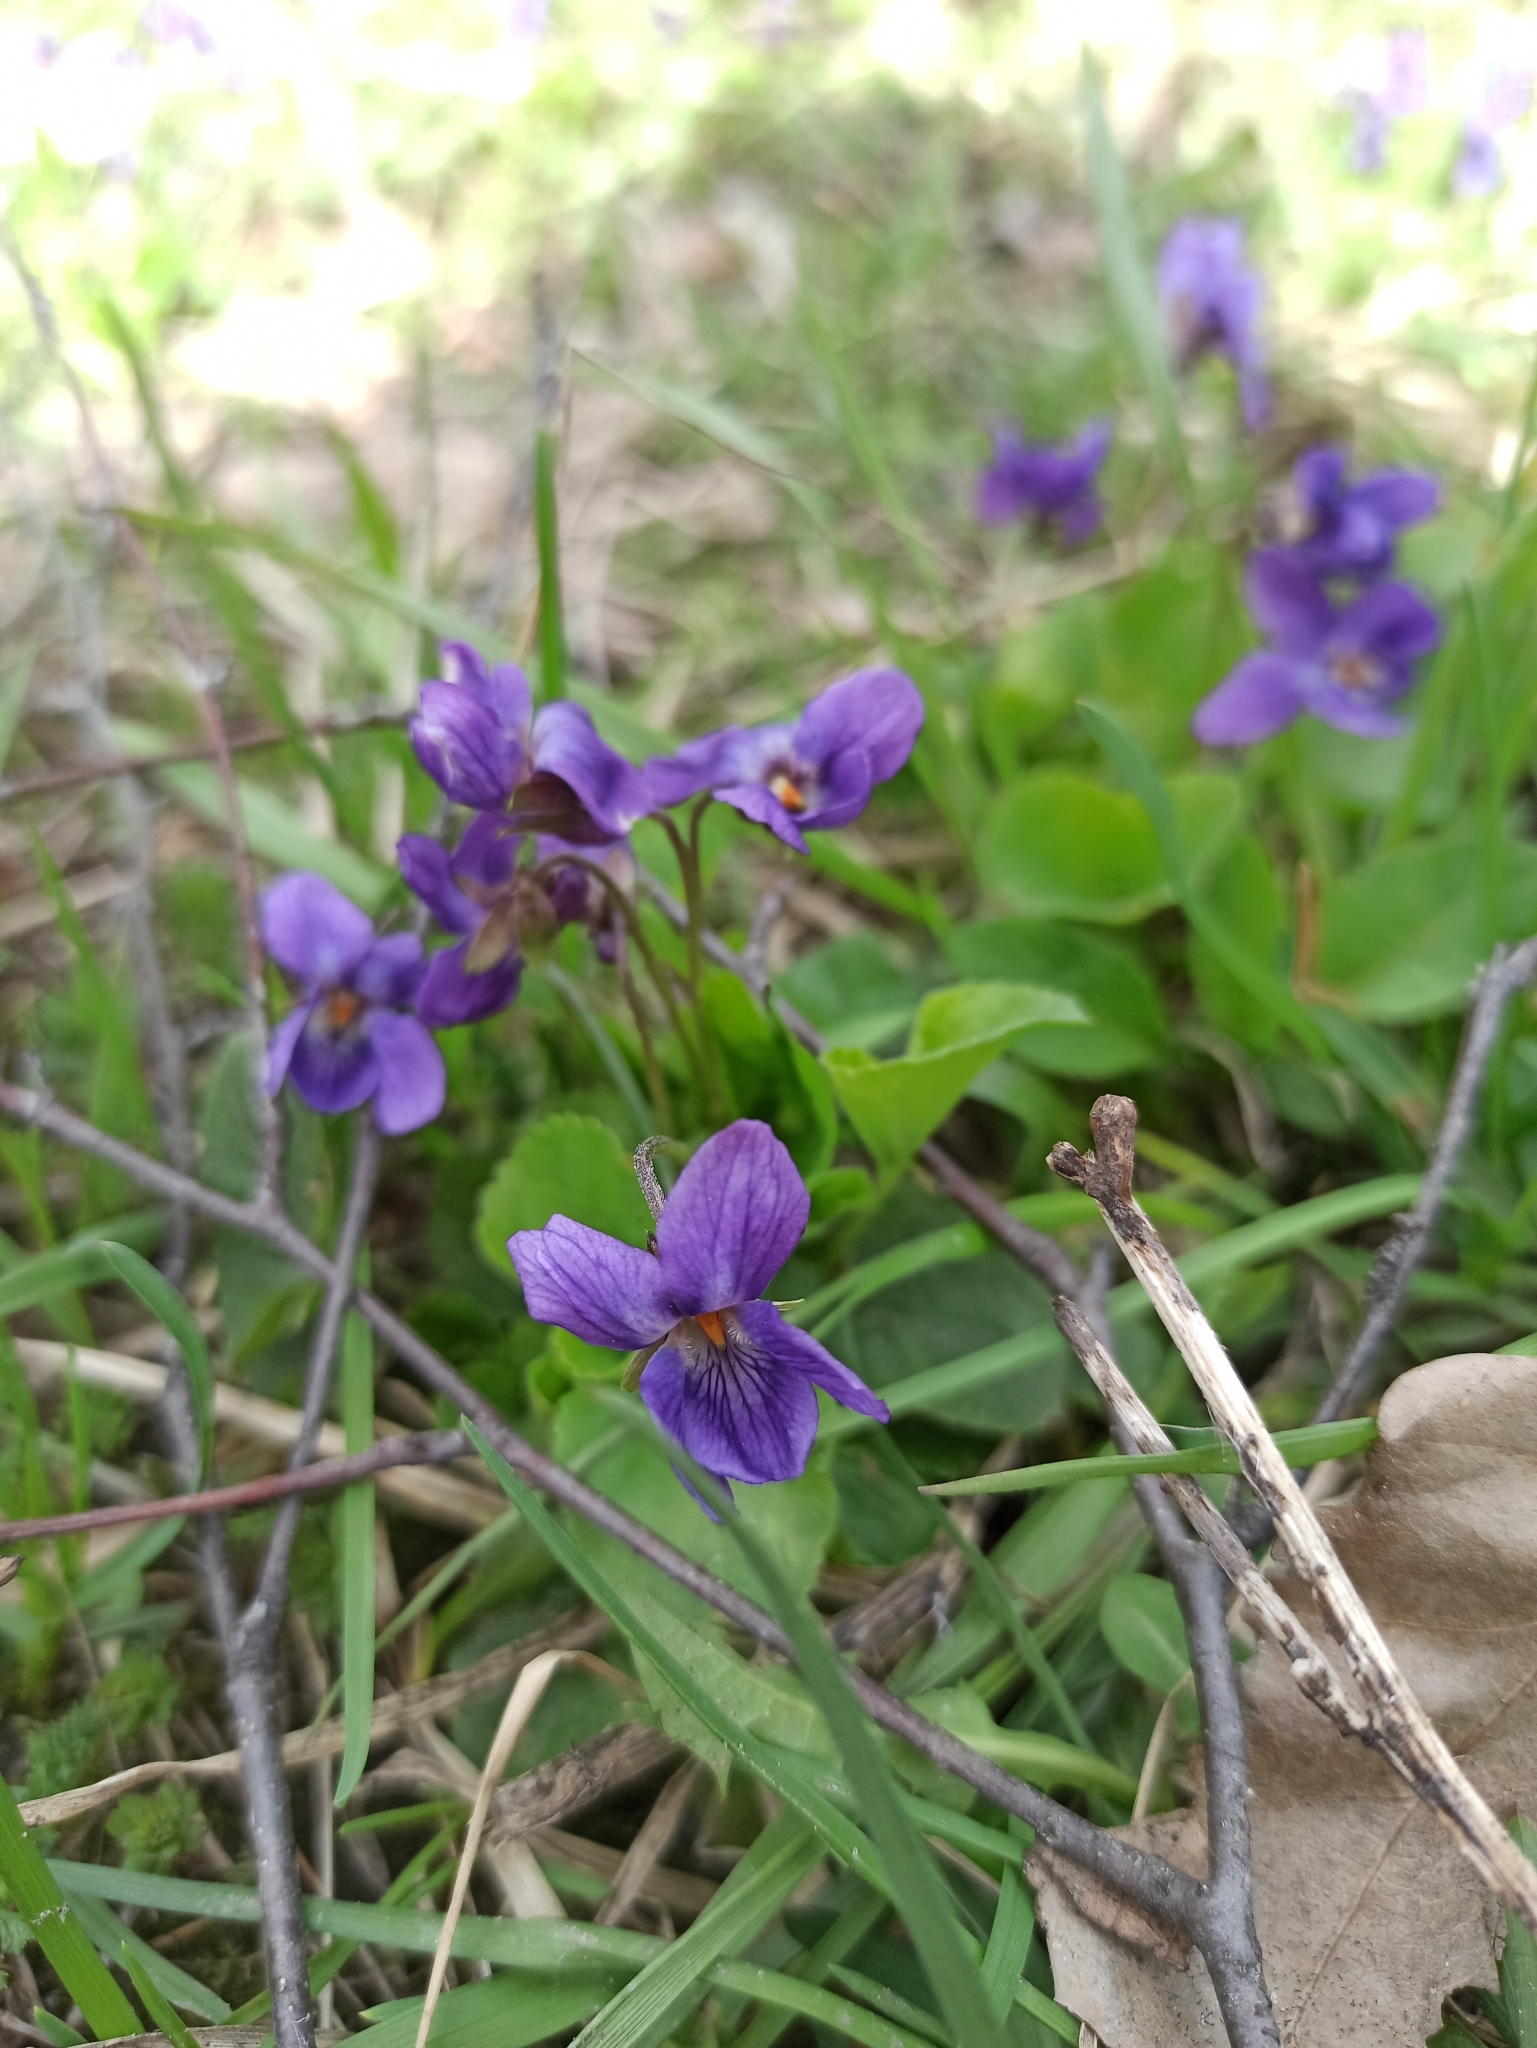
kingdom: Plantae
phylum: Tracheophyta
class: Magnoliopsida
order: Malpighiales
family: Violaceae
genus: Viola
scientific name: Viola odorata
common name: Sweet violet
